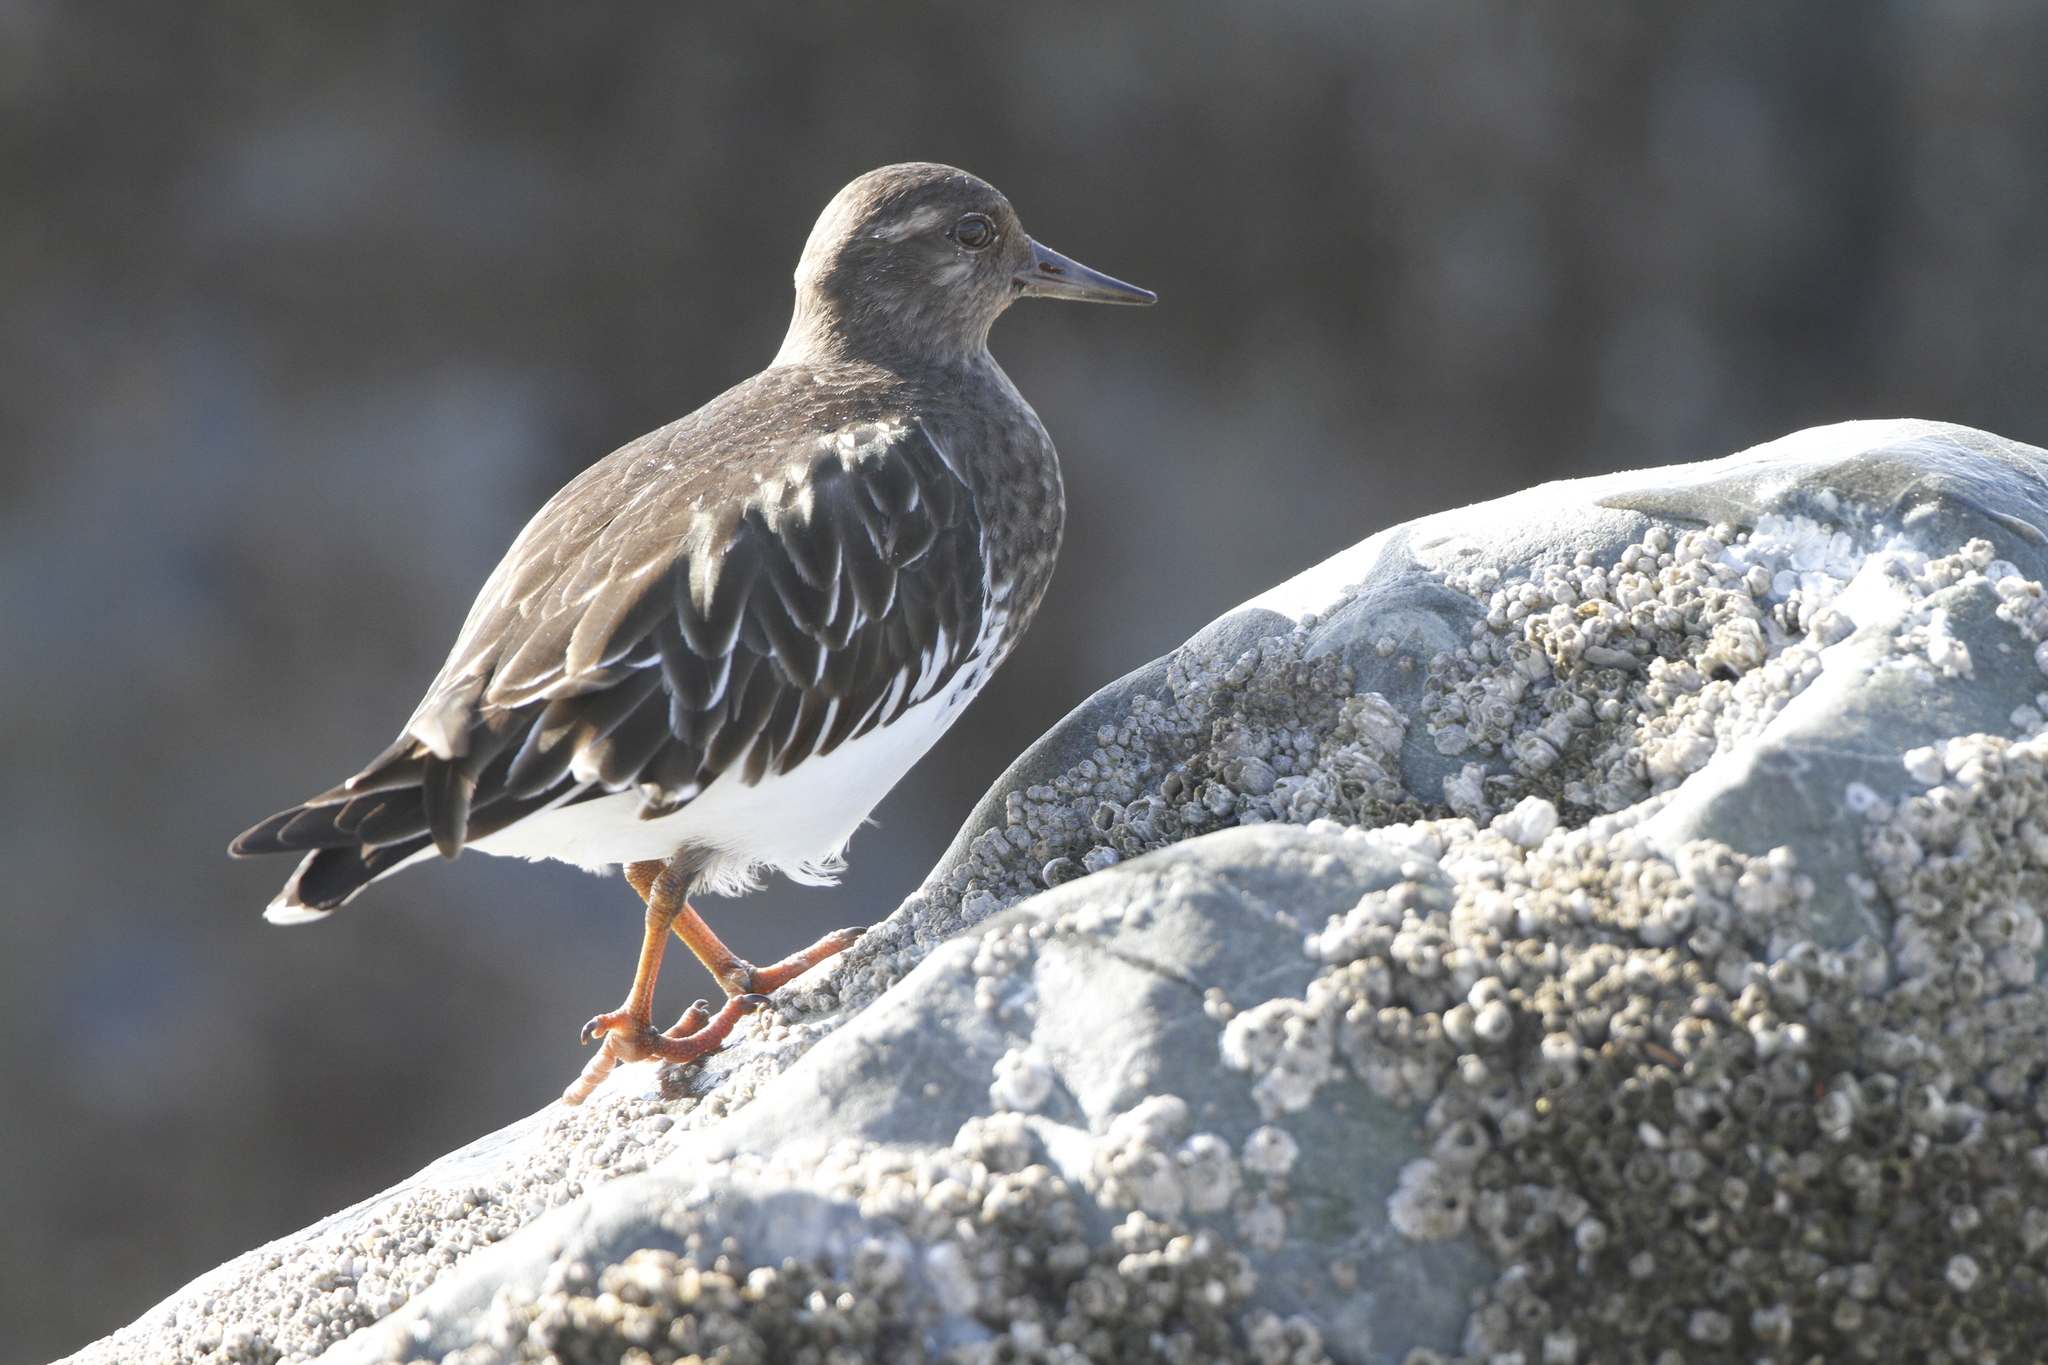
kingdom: Animalia
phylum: Chordata
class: Aves
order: Charadriiformes
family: Scolopacidae
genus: Arenaria
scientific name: Arenaria melanocephala
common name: Black turnstone
